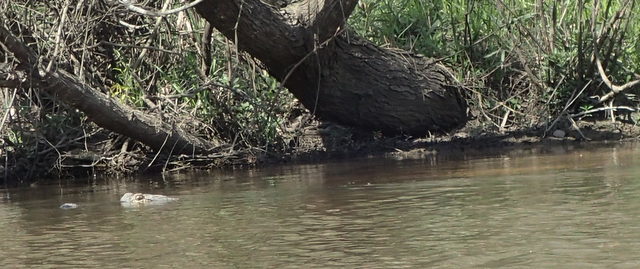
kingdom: Animalia
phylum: Chordata
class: Crocodylia
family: Alligatoridae
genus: Alligator
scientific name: Alligator mississippiensis
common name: American alligator
